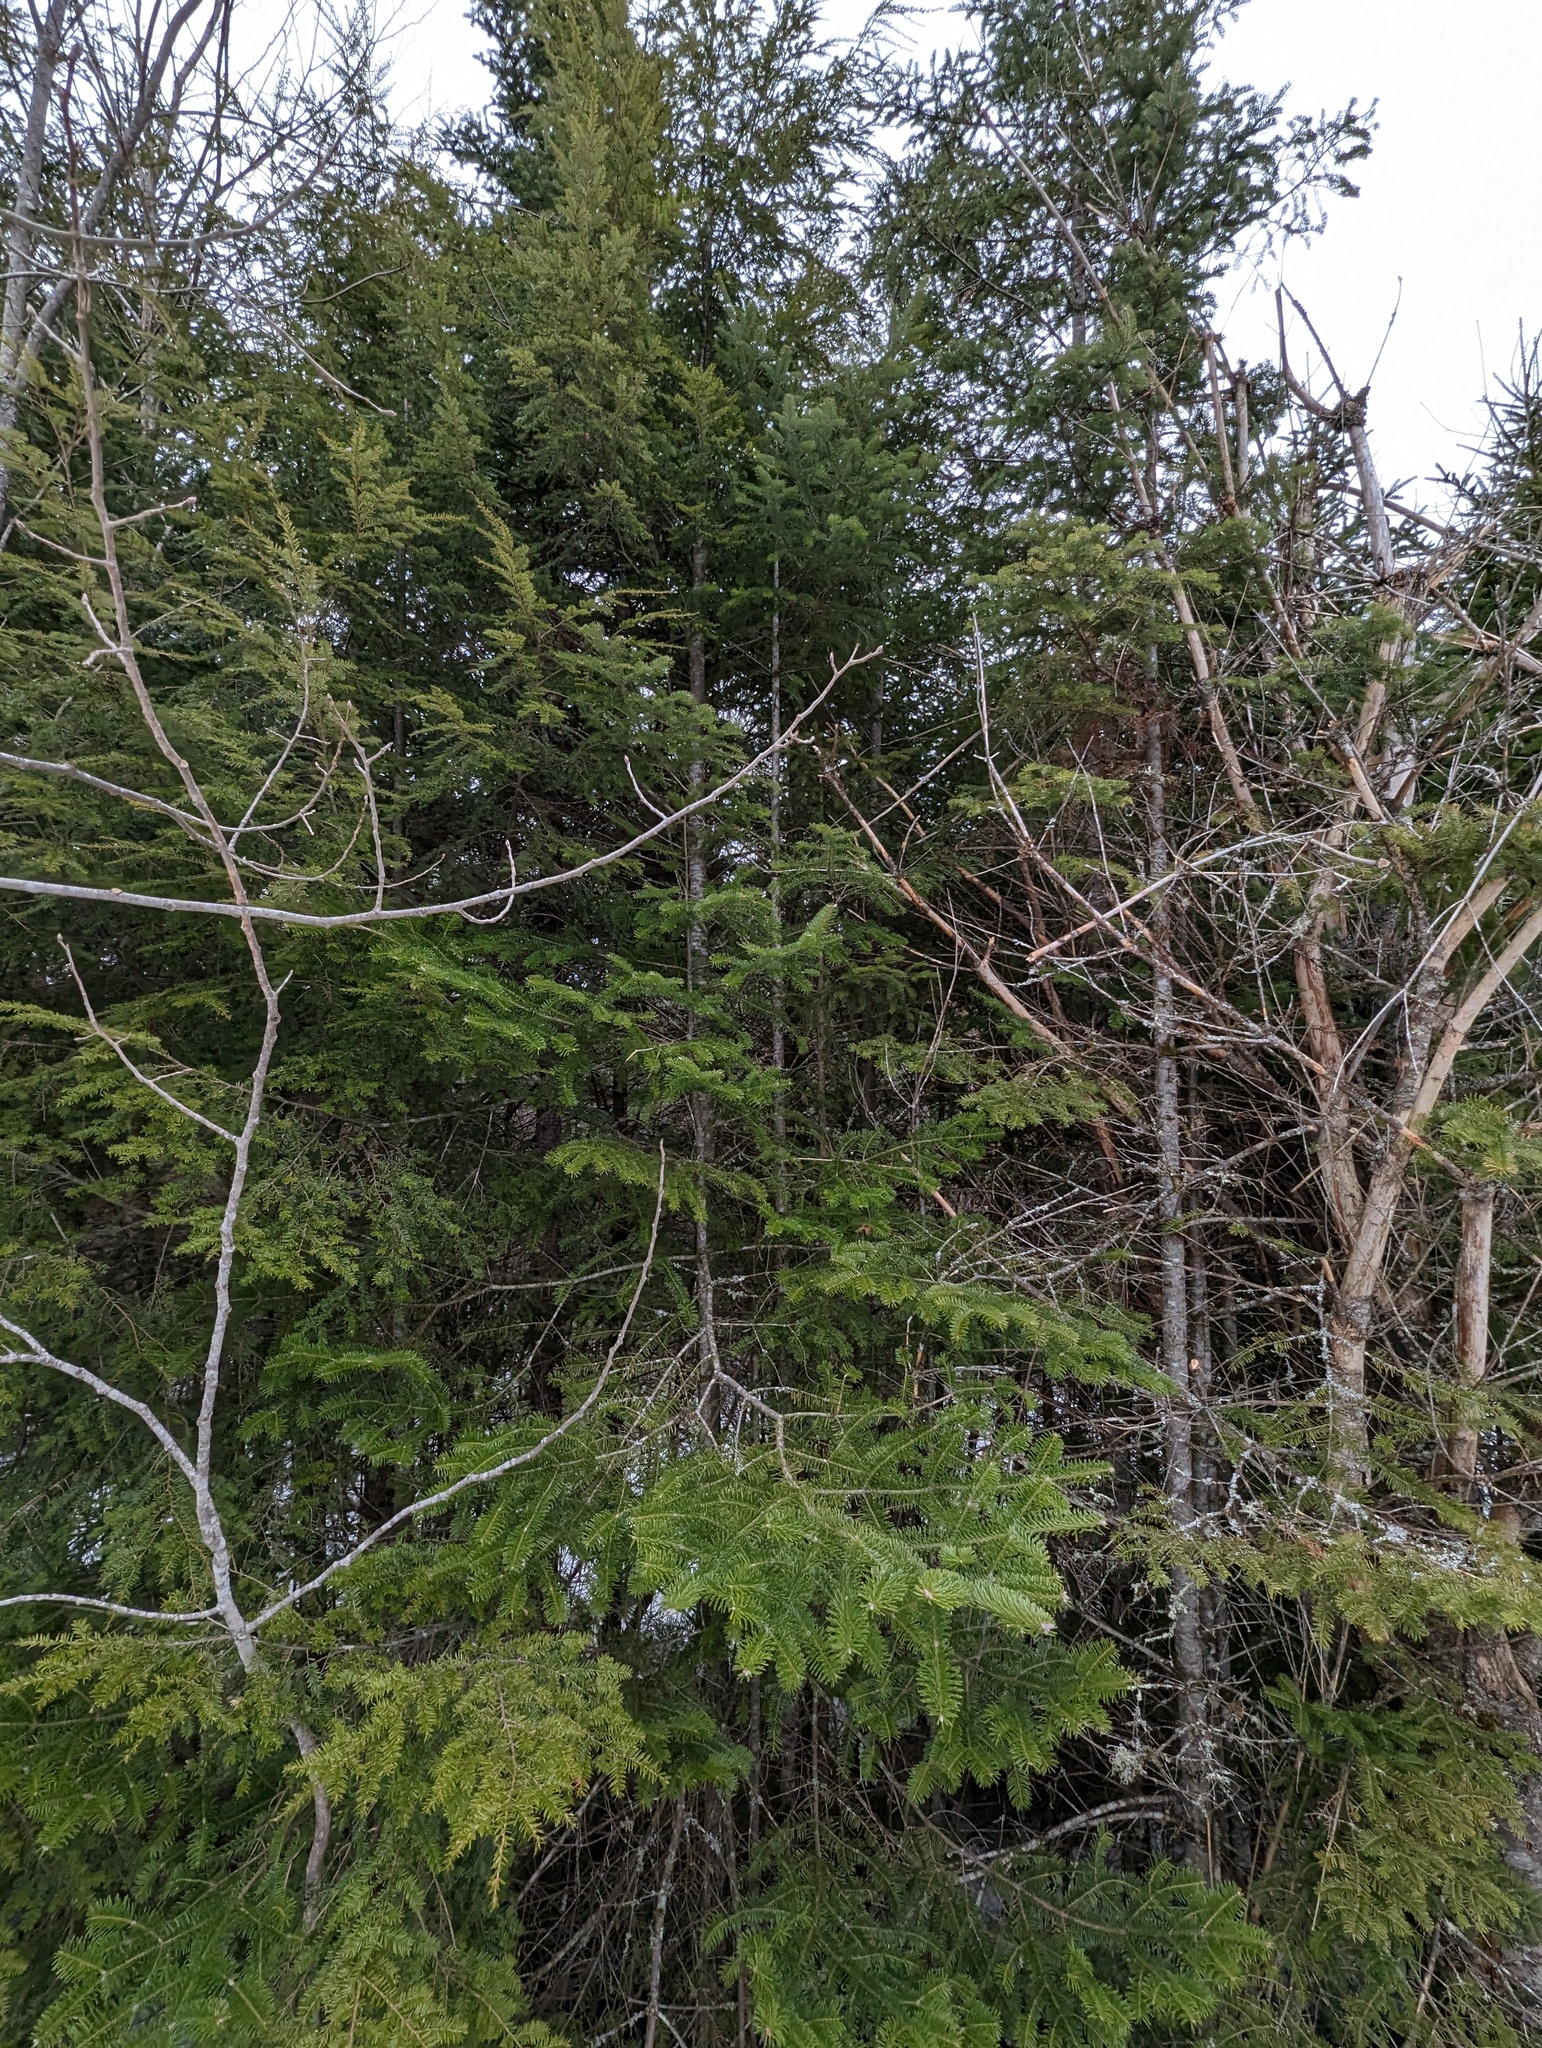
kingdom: Plantae
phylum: Tracheophyta
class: Pinopsida
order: Pinales
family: Pinaceae
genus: Abies
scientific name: Abies balsamea
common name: Balsam fir
